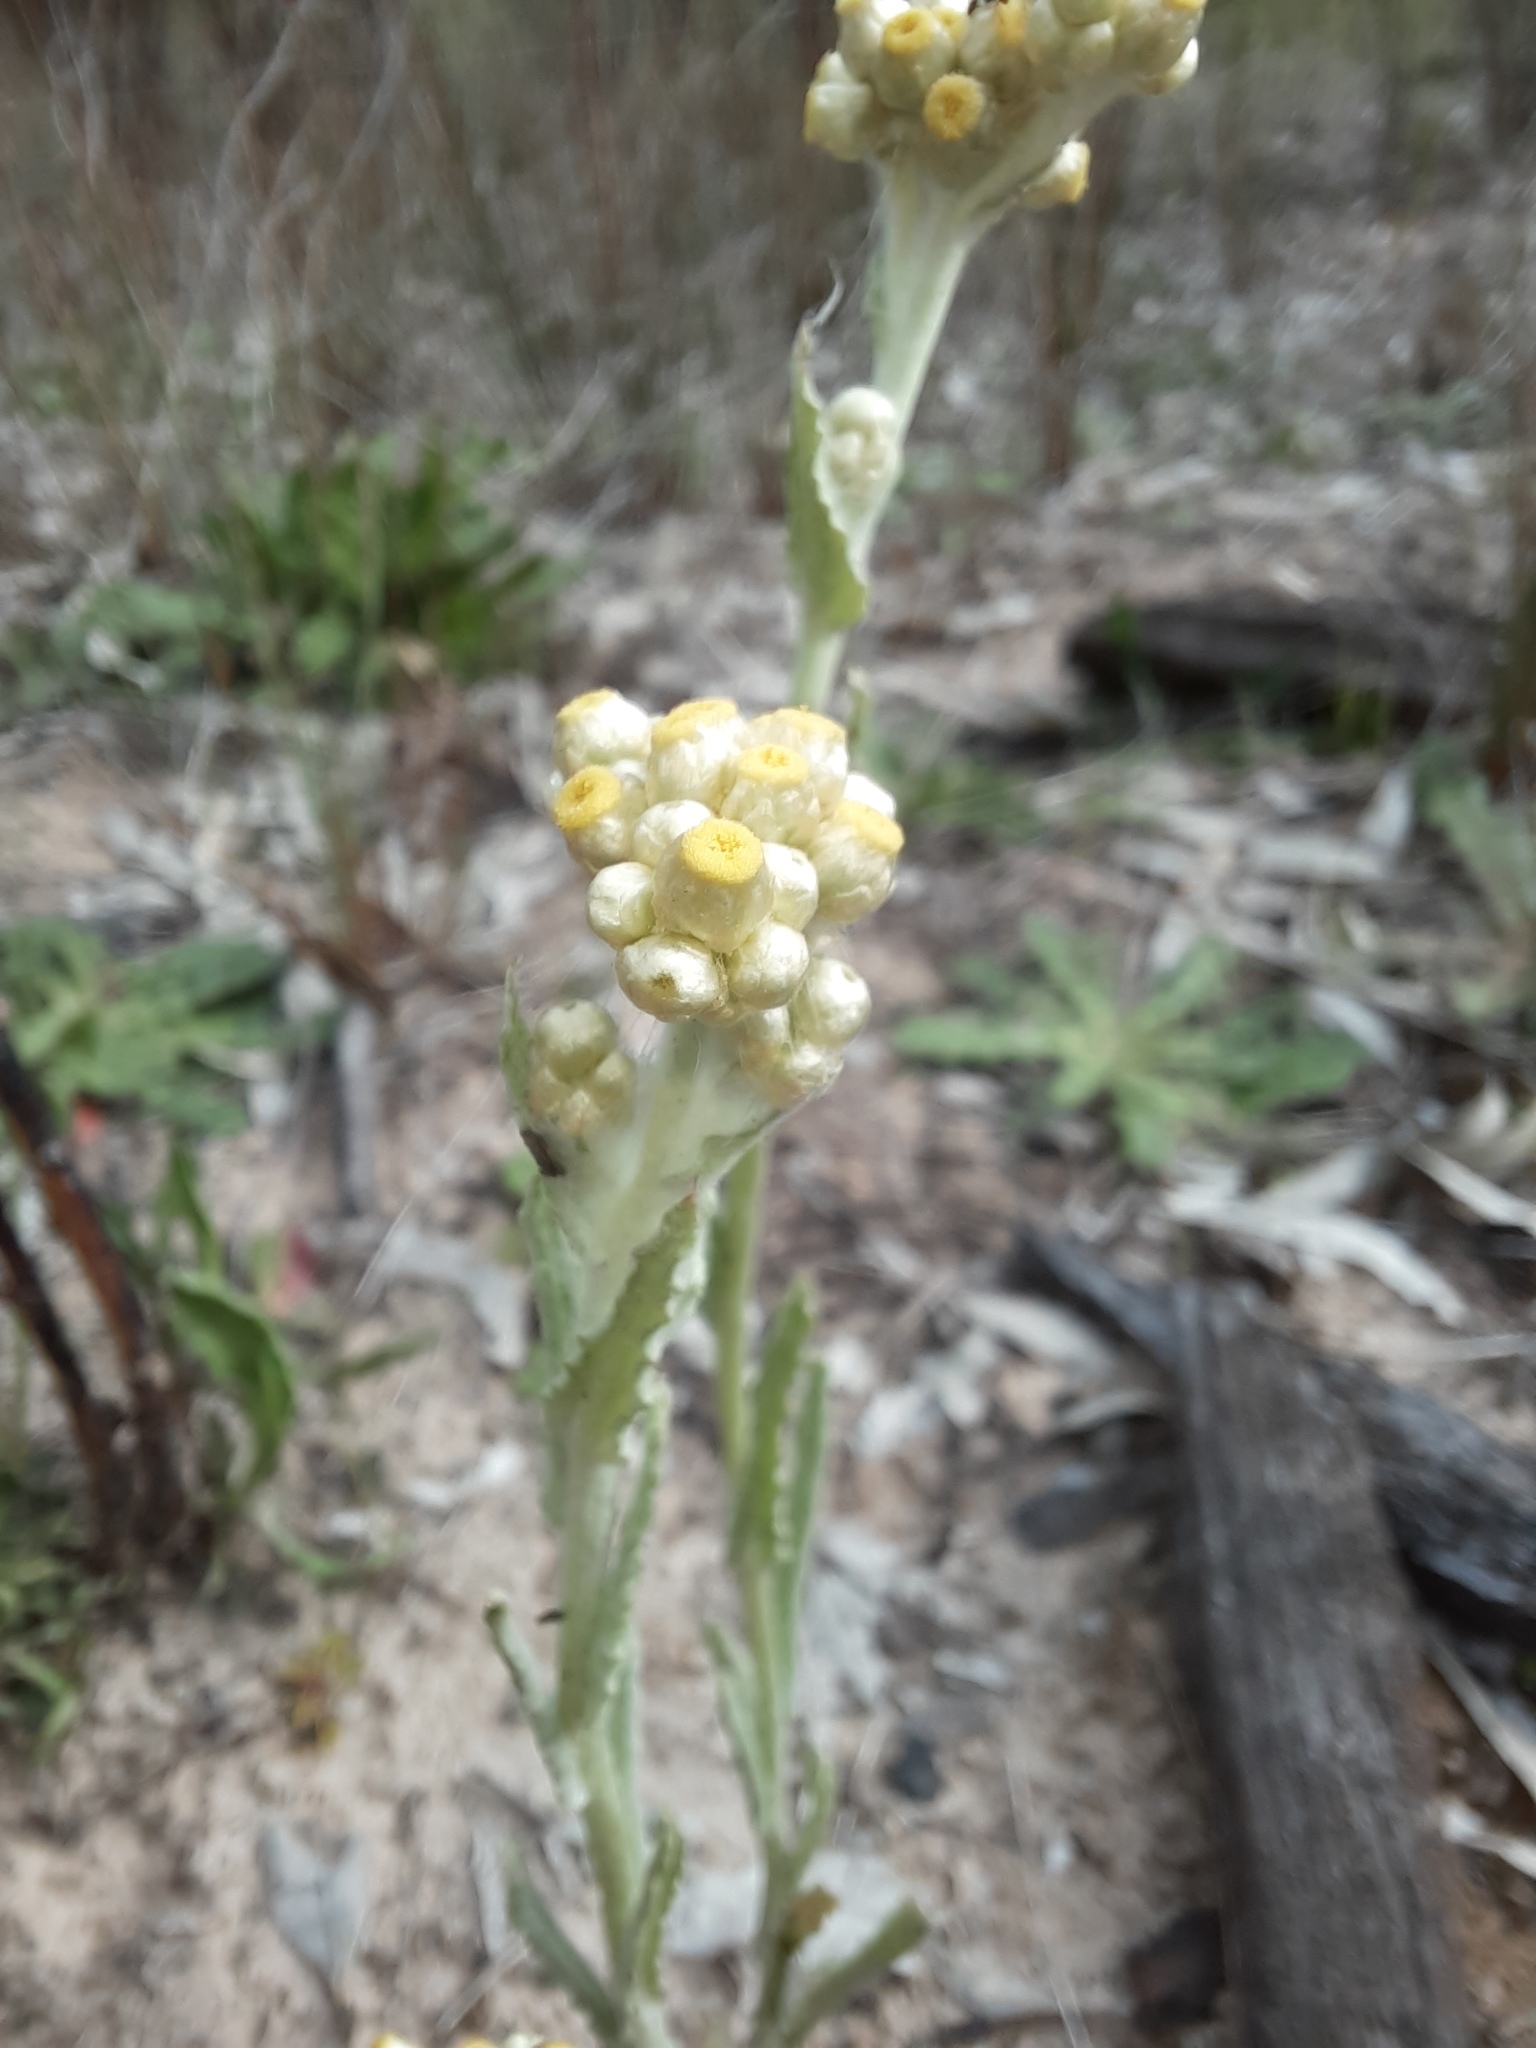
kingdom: Plantae
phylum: Tracheophyta
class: Magnoliopsida
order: Asterales
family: Asteraceae
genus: Helichrysum
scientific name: Helichrysum luteoalbum
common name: Daisy
